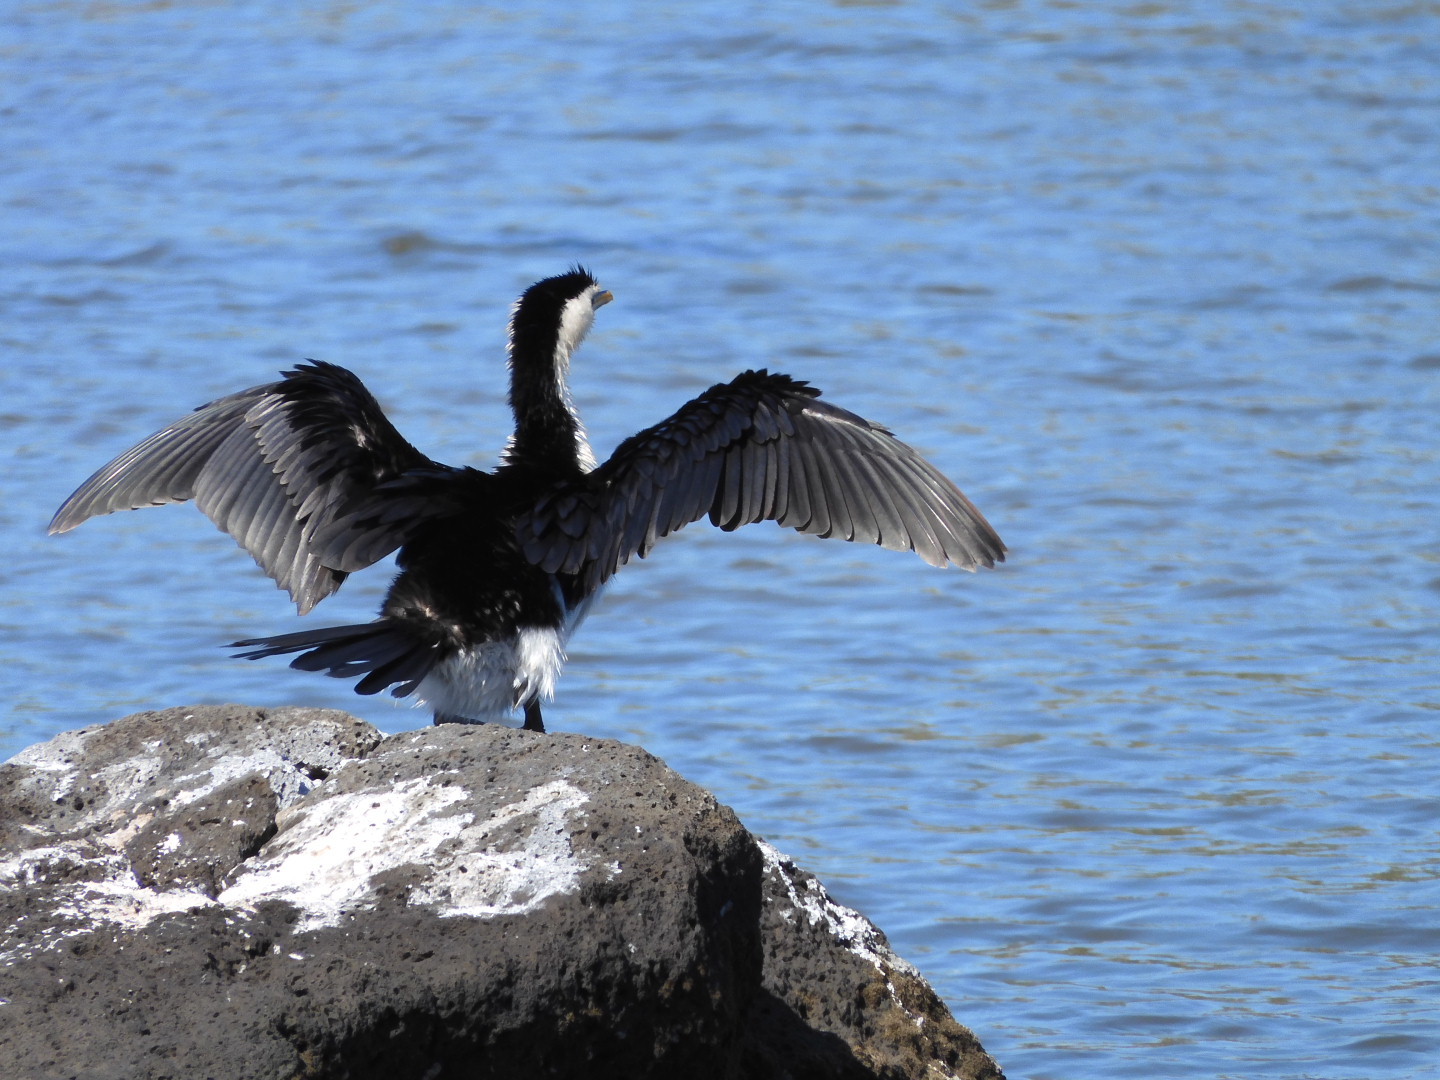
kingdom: Animalia
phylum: Chordata
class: Aves
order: Suliformes
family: Phalacrocoracidae
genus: Microcarbo
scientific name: Microcarbo melanoleucos
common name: Little pied cormorant
